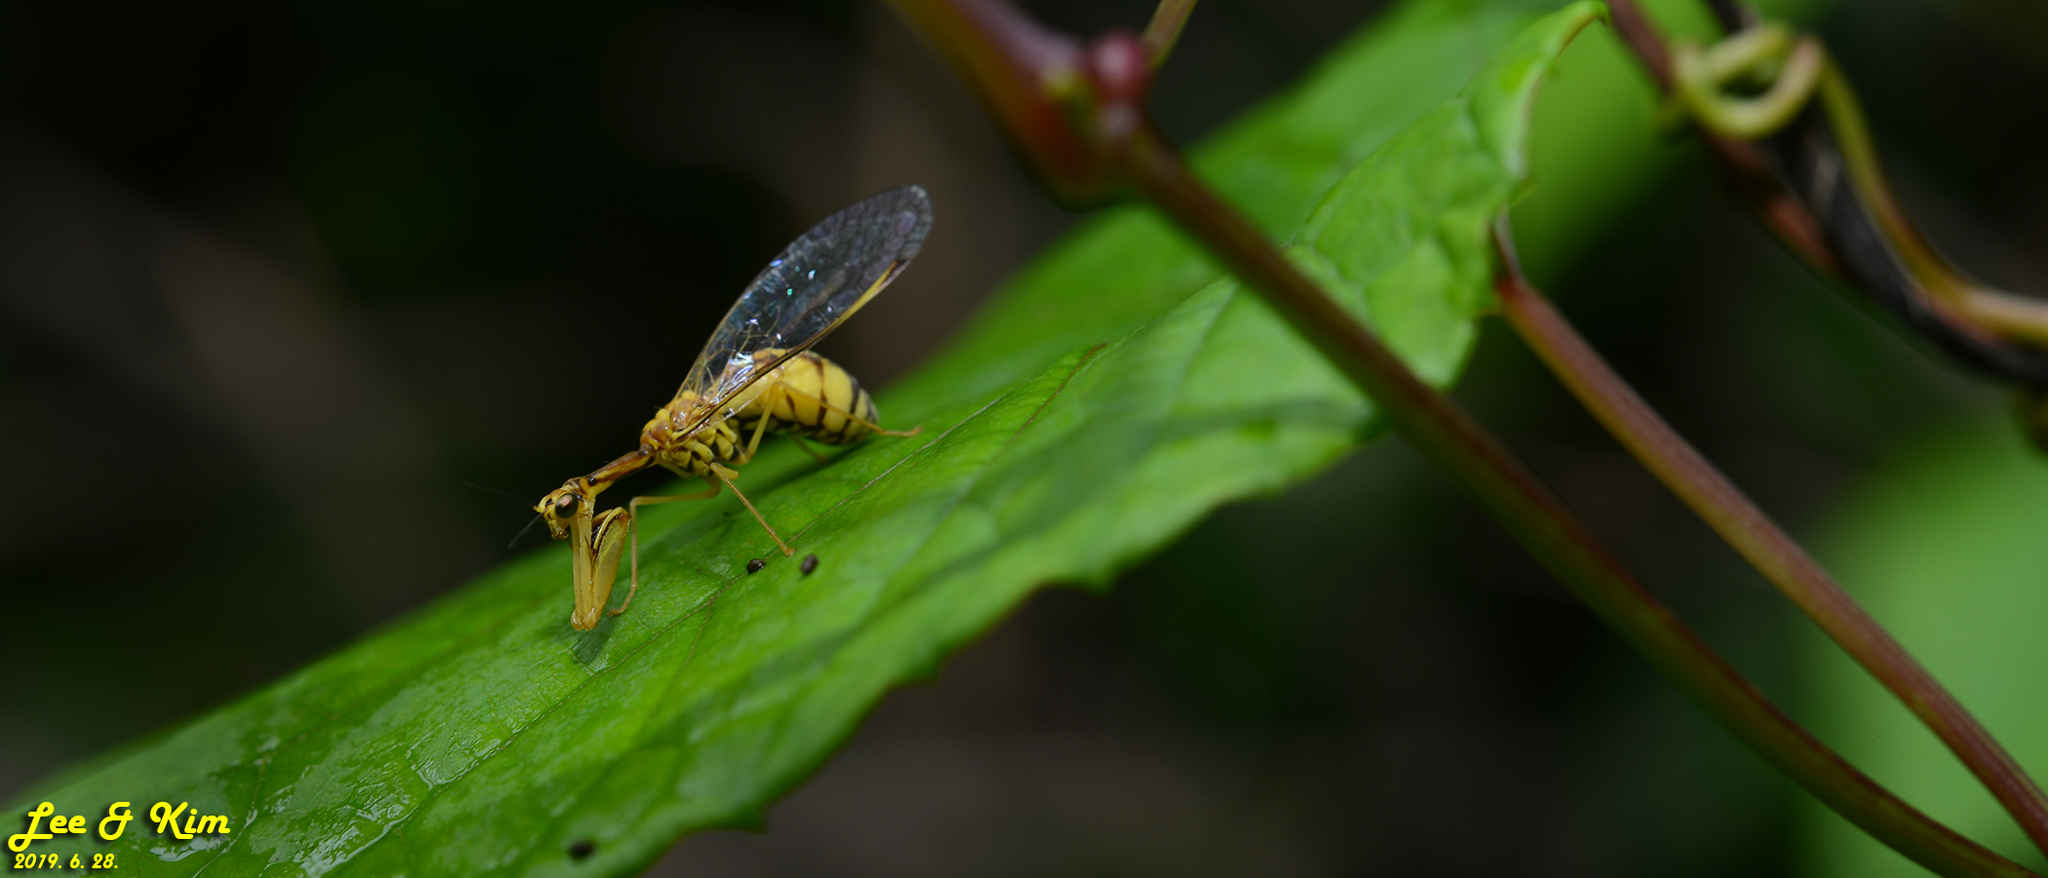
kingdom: Animalia
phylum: Arthropoda
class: Insecta
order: Neuroptera
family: Mantispidae
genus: Mantispa
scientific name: Mantispa japonica
